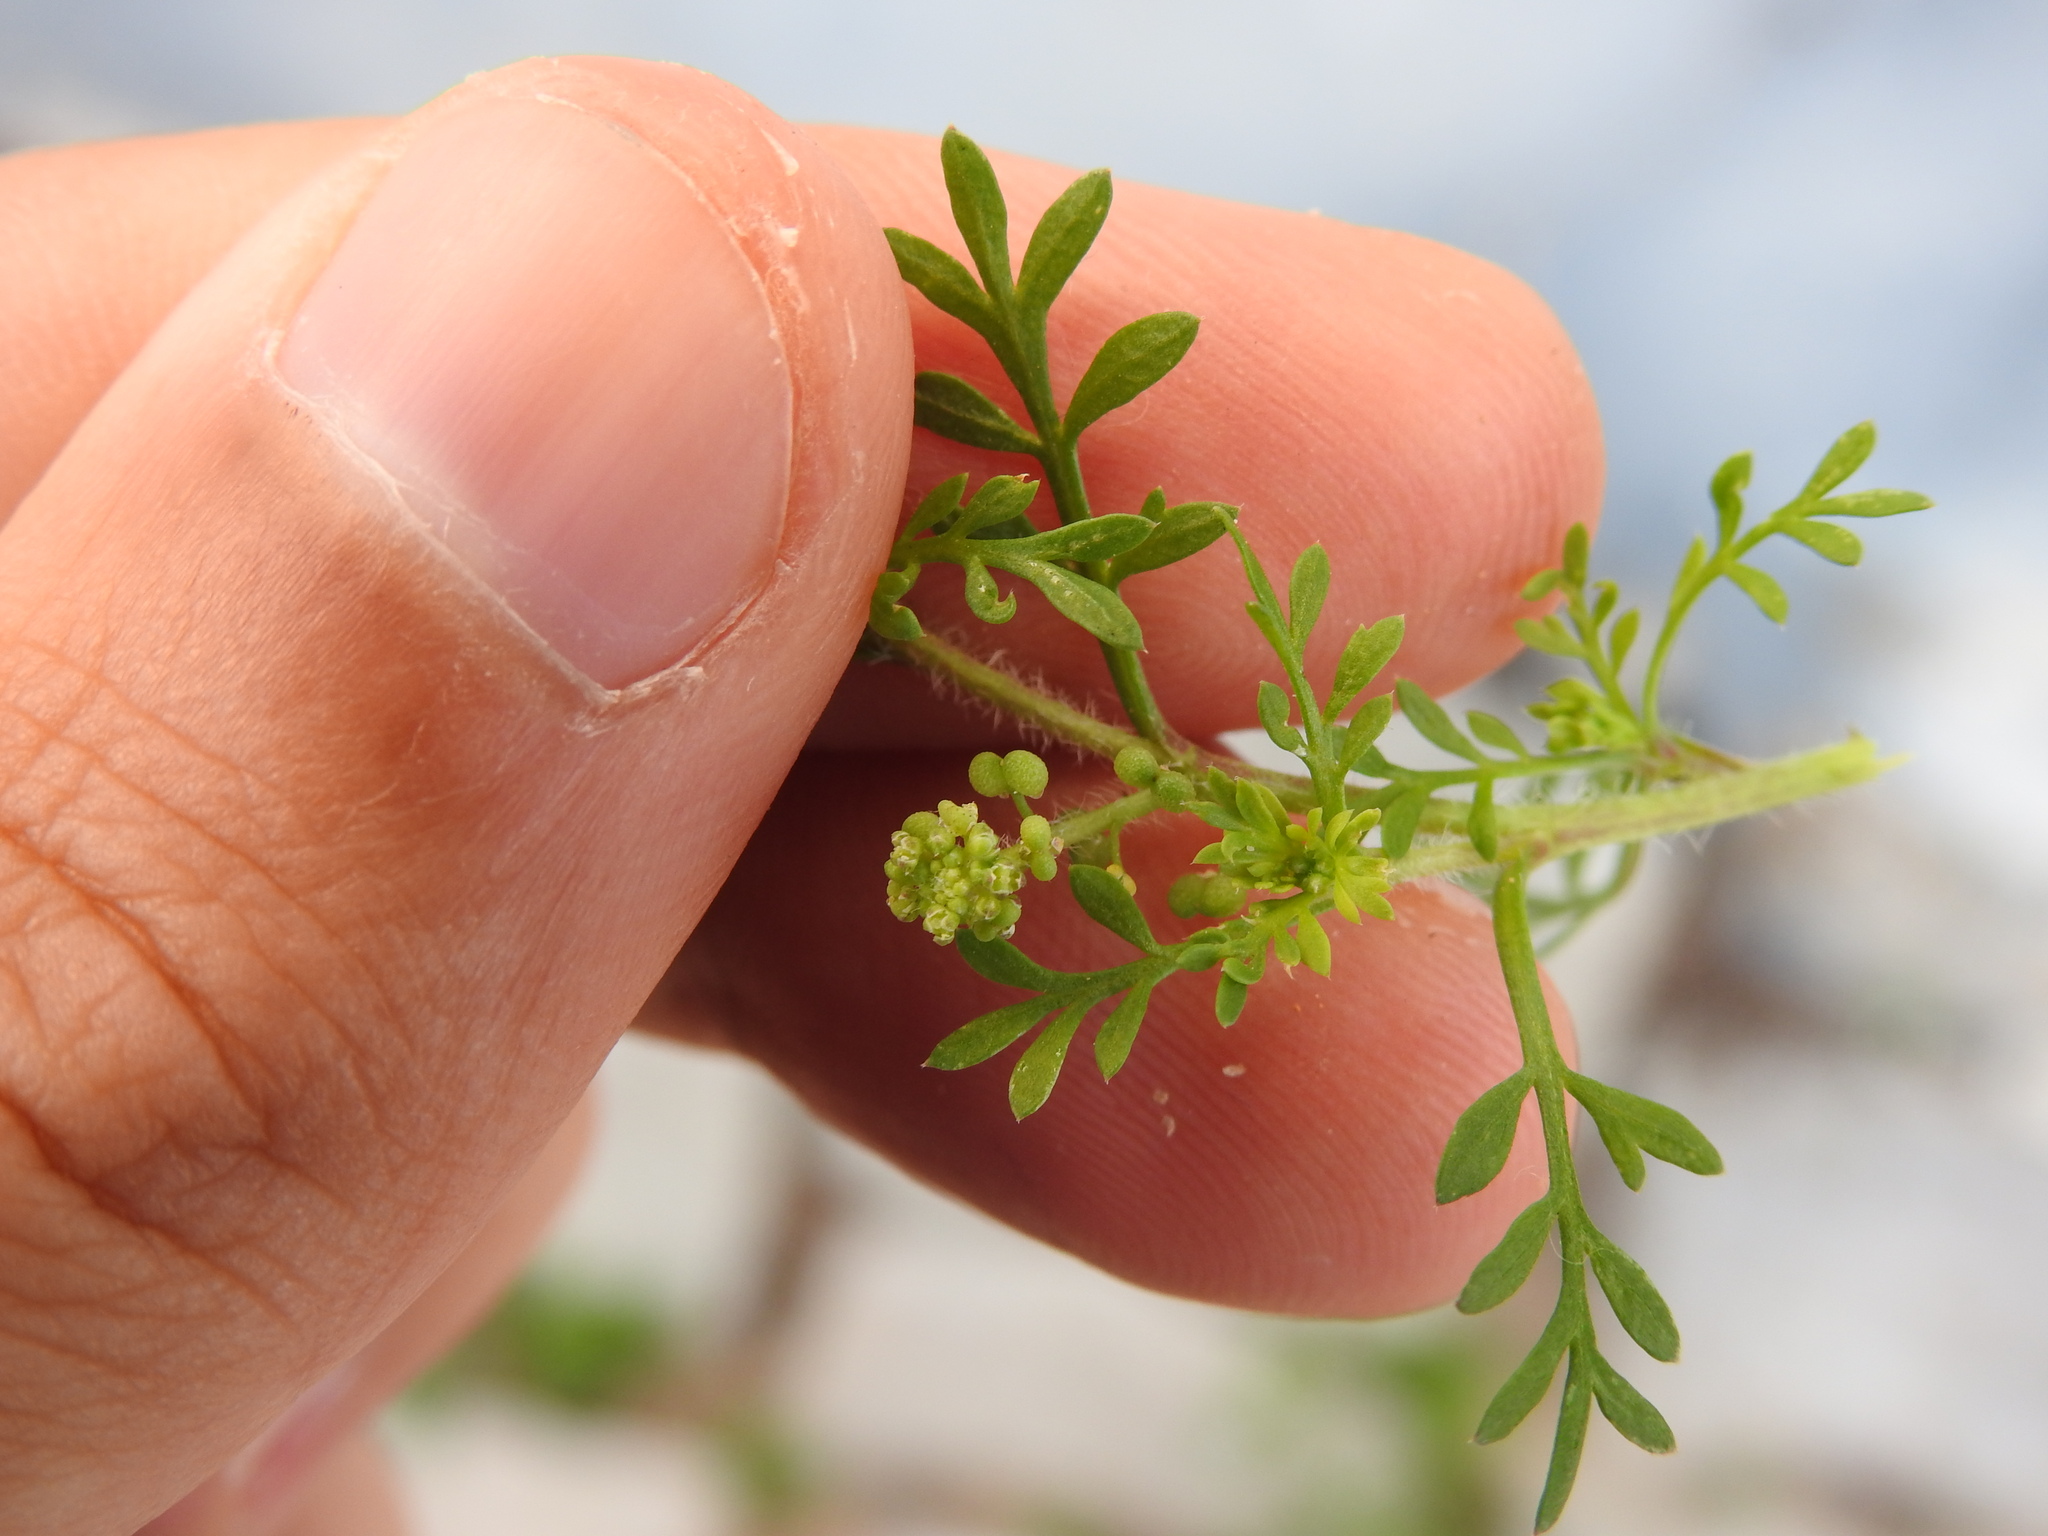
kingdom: Plantae
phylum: Tracheophyta
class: Magnoliopsida
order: Brassicales
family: Brassicaceae
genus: Lepidium
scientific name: Lepidium didymum
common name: Lesser swinecress
